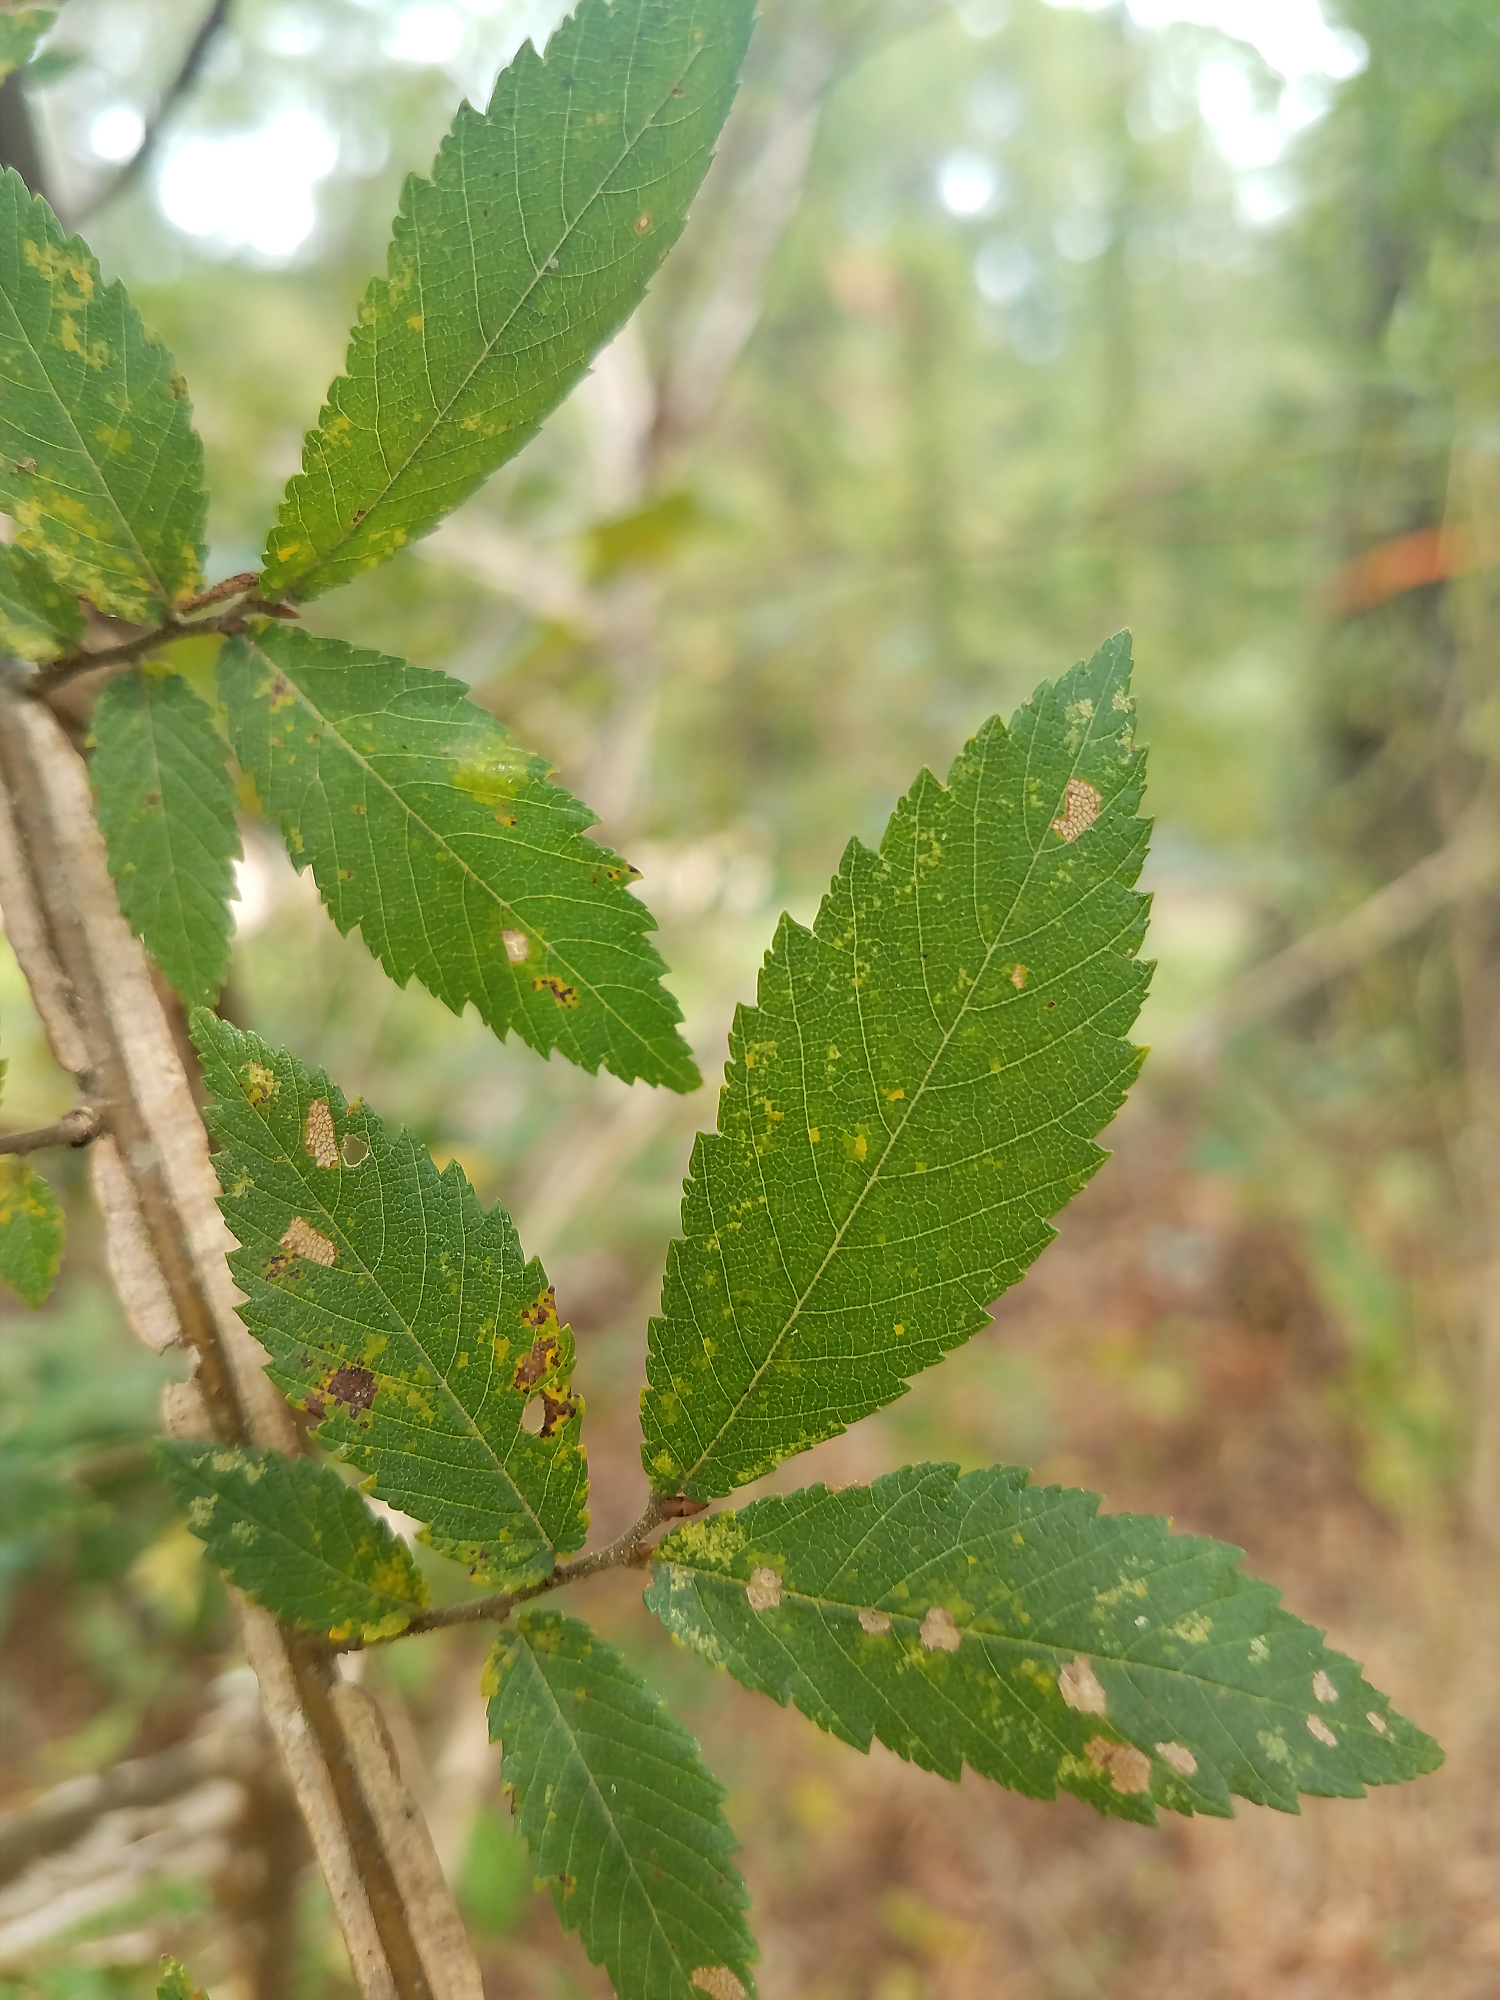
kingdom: Plantae
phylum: Tracheophyta
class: Magnoliopsida
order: Rosales
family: Ulmaceae
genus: Ulmus
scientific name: Ulmus alata
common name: Winged elm
